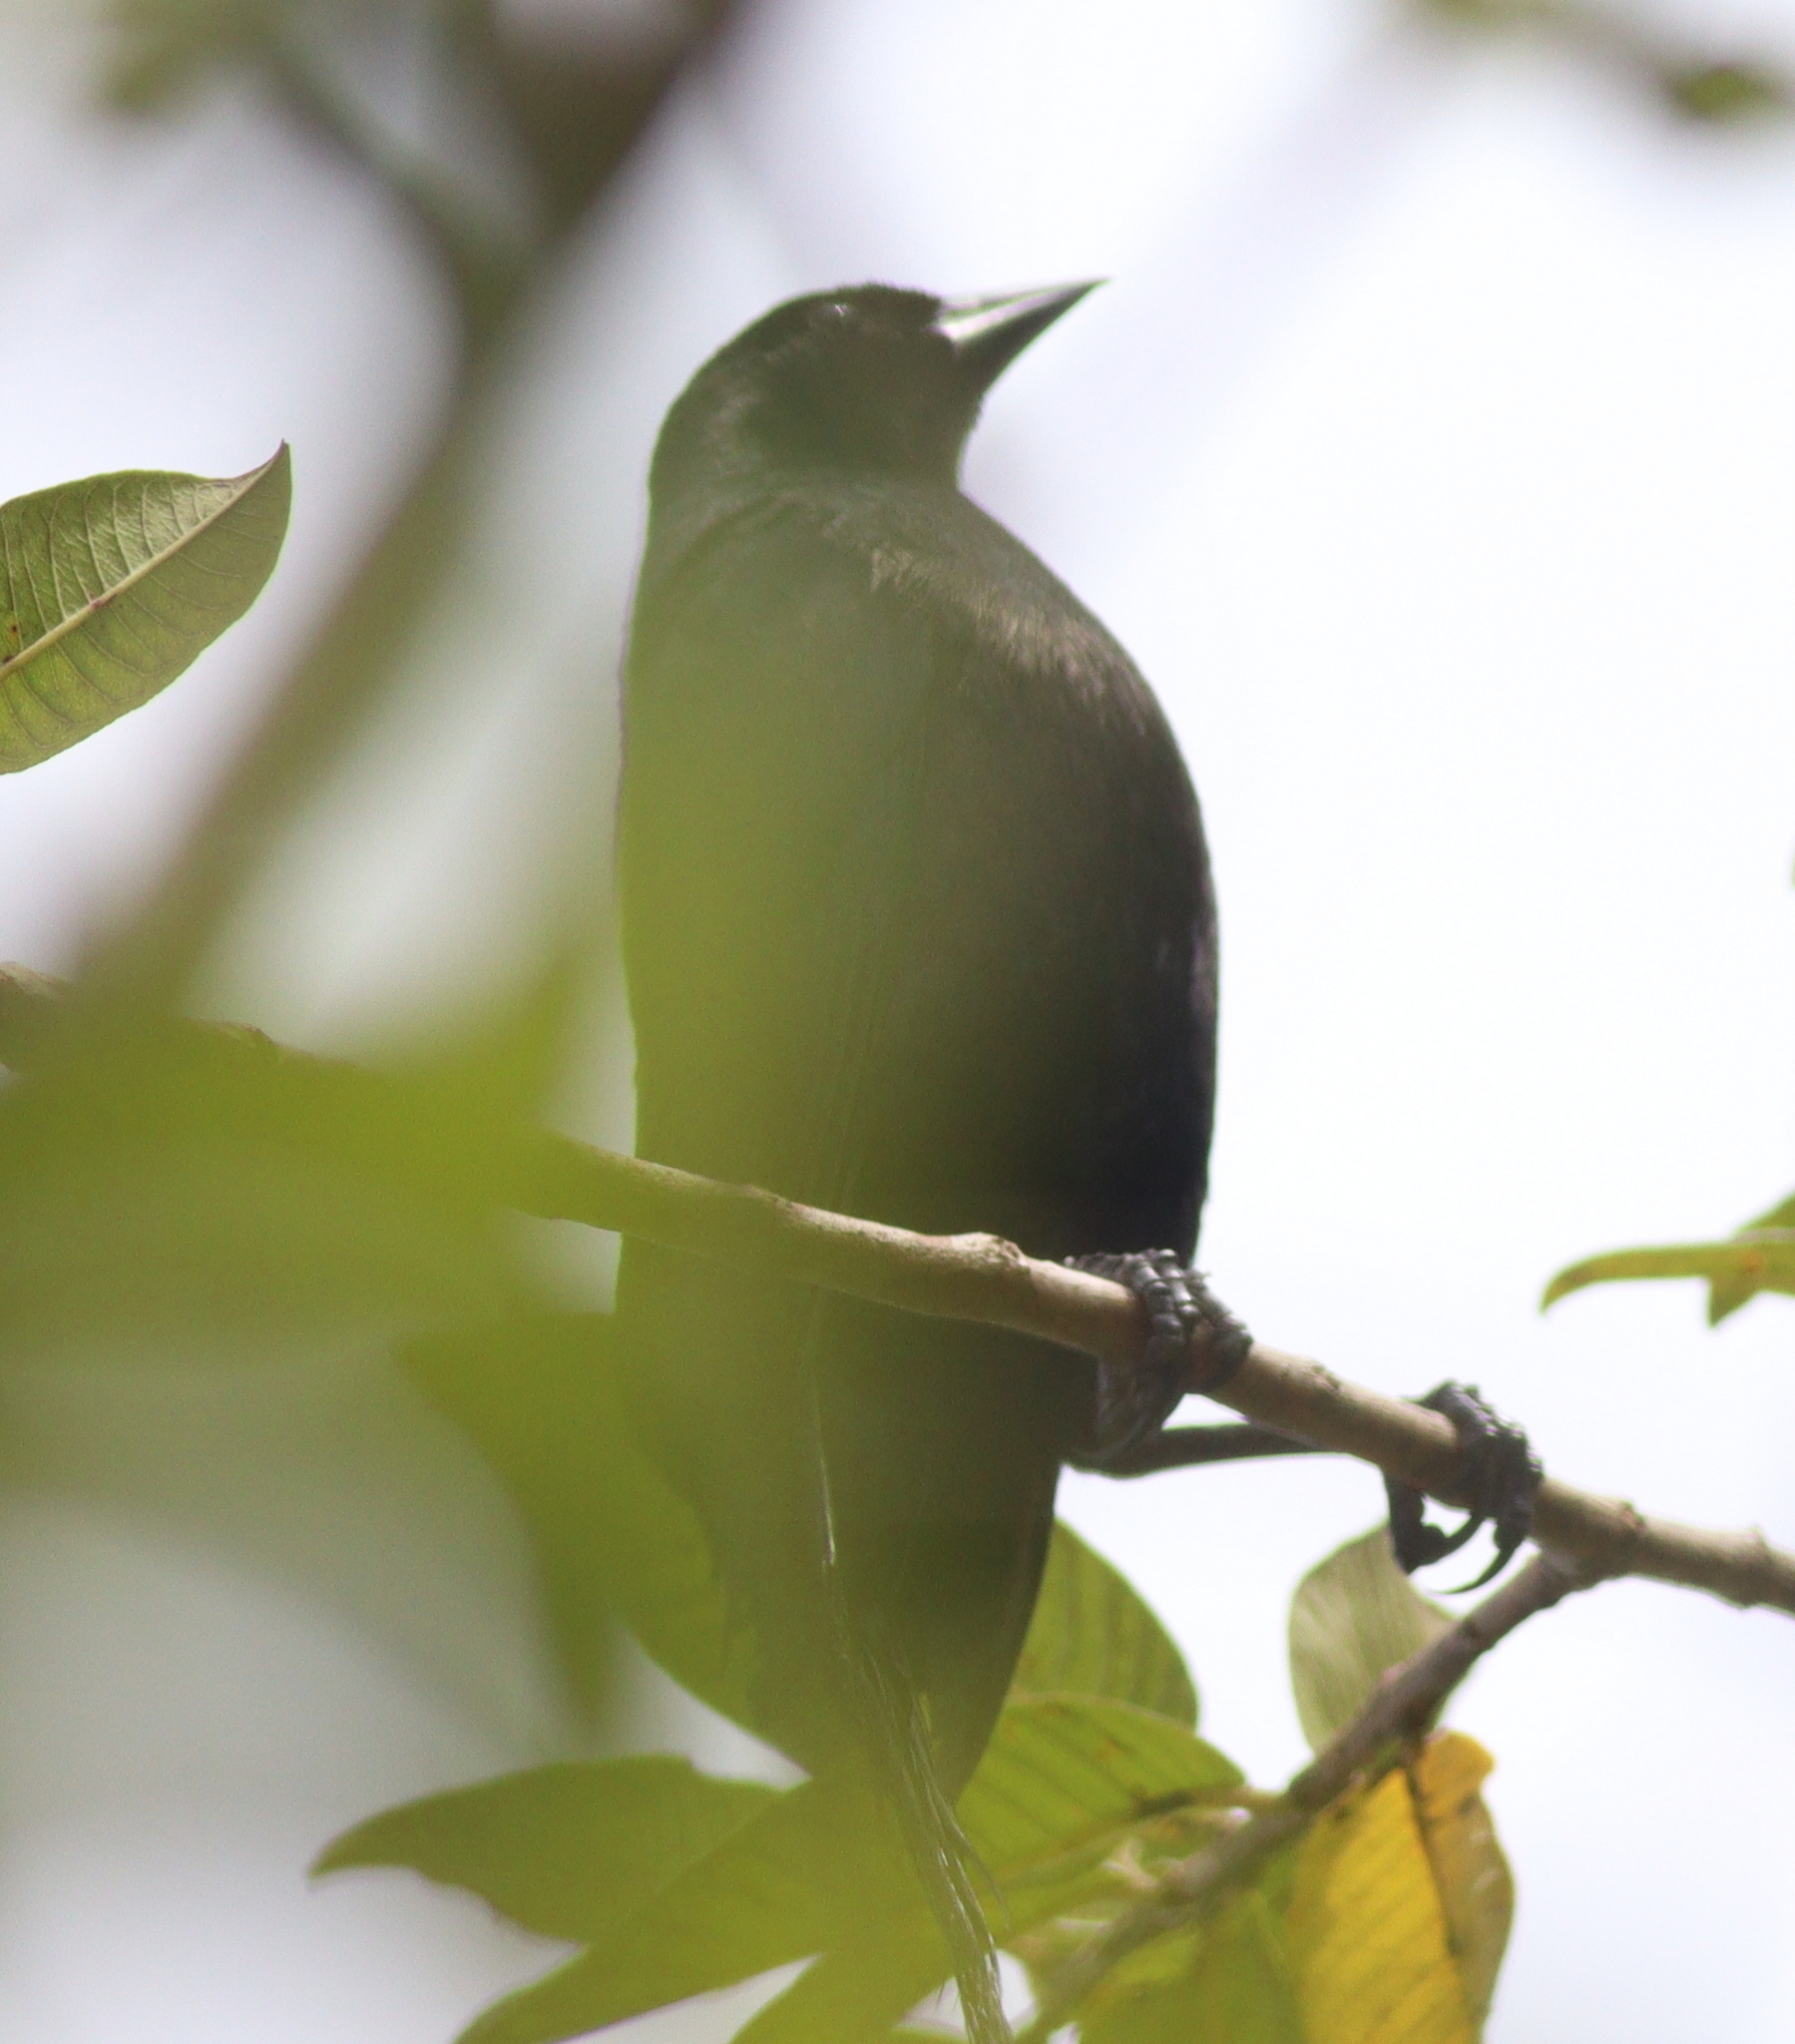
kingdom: Animalia
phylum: Chordata
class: Aves
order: Passeriformes
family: Icteridae
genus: Molothrus
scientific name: Molothrus bonariensis
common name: Shiny cowbird
